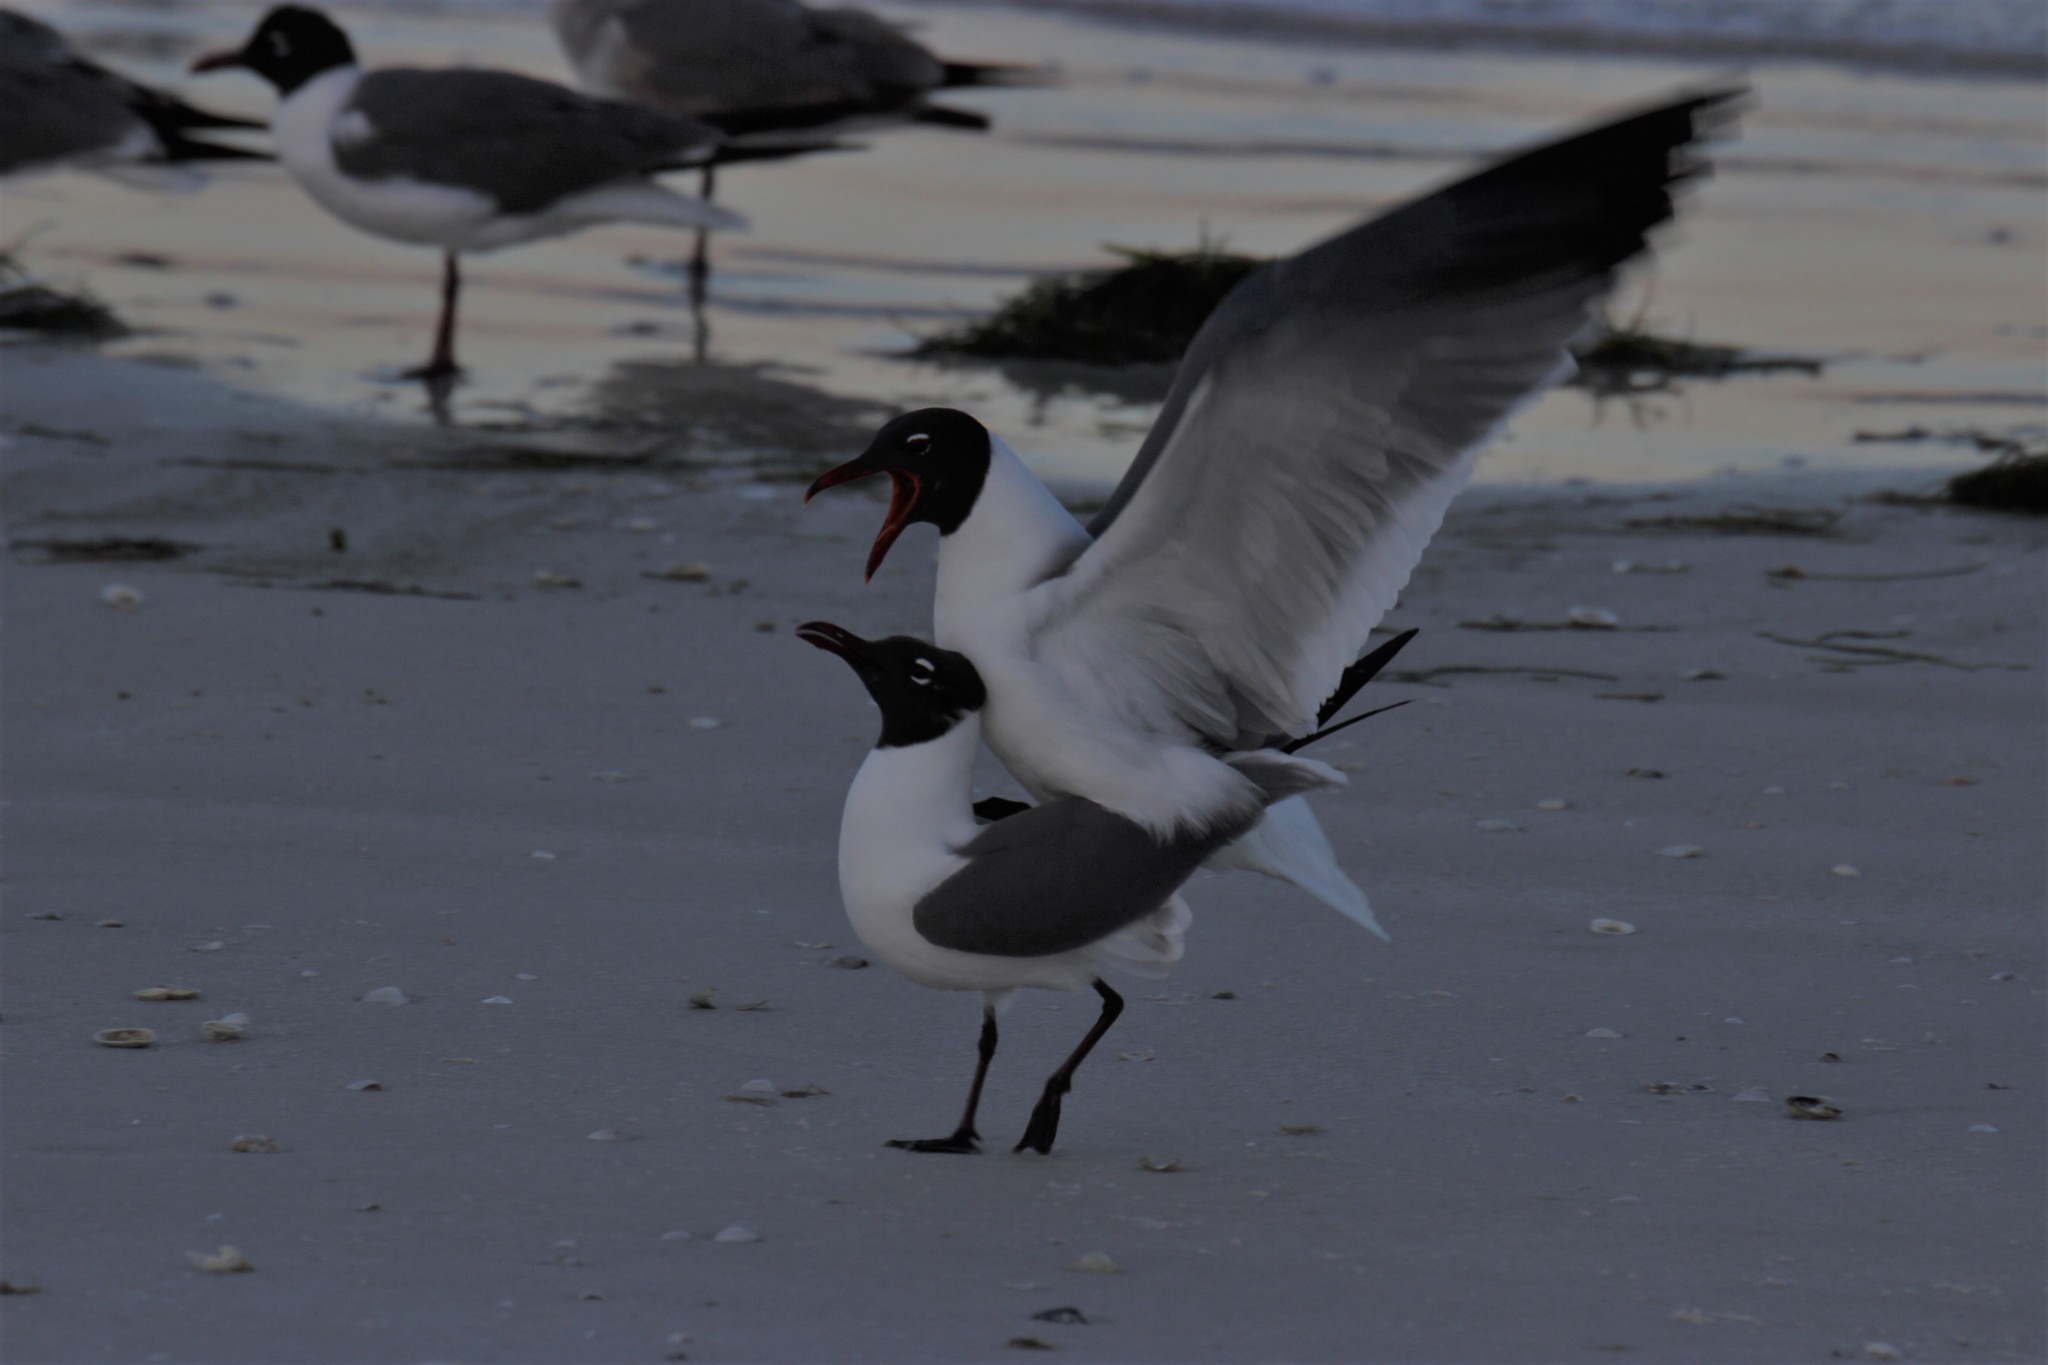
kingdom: Animalia
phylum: Chordata
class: Aves
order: Charadriiformes
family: Laridae
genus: Leucophaeus
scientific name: Leucophaeus atricilla
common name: Laughing gull
